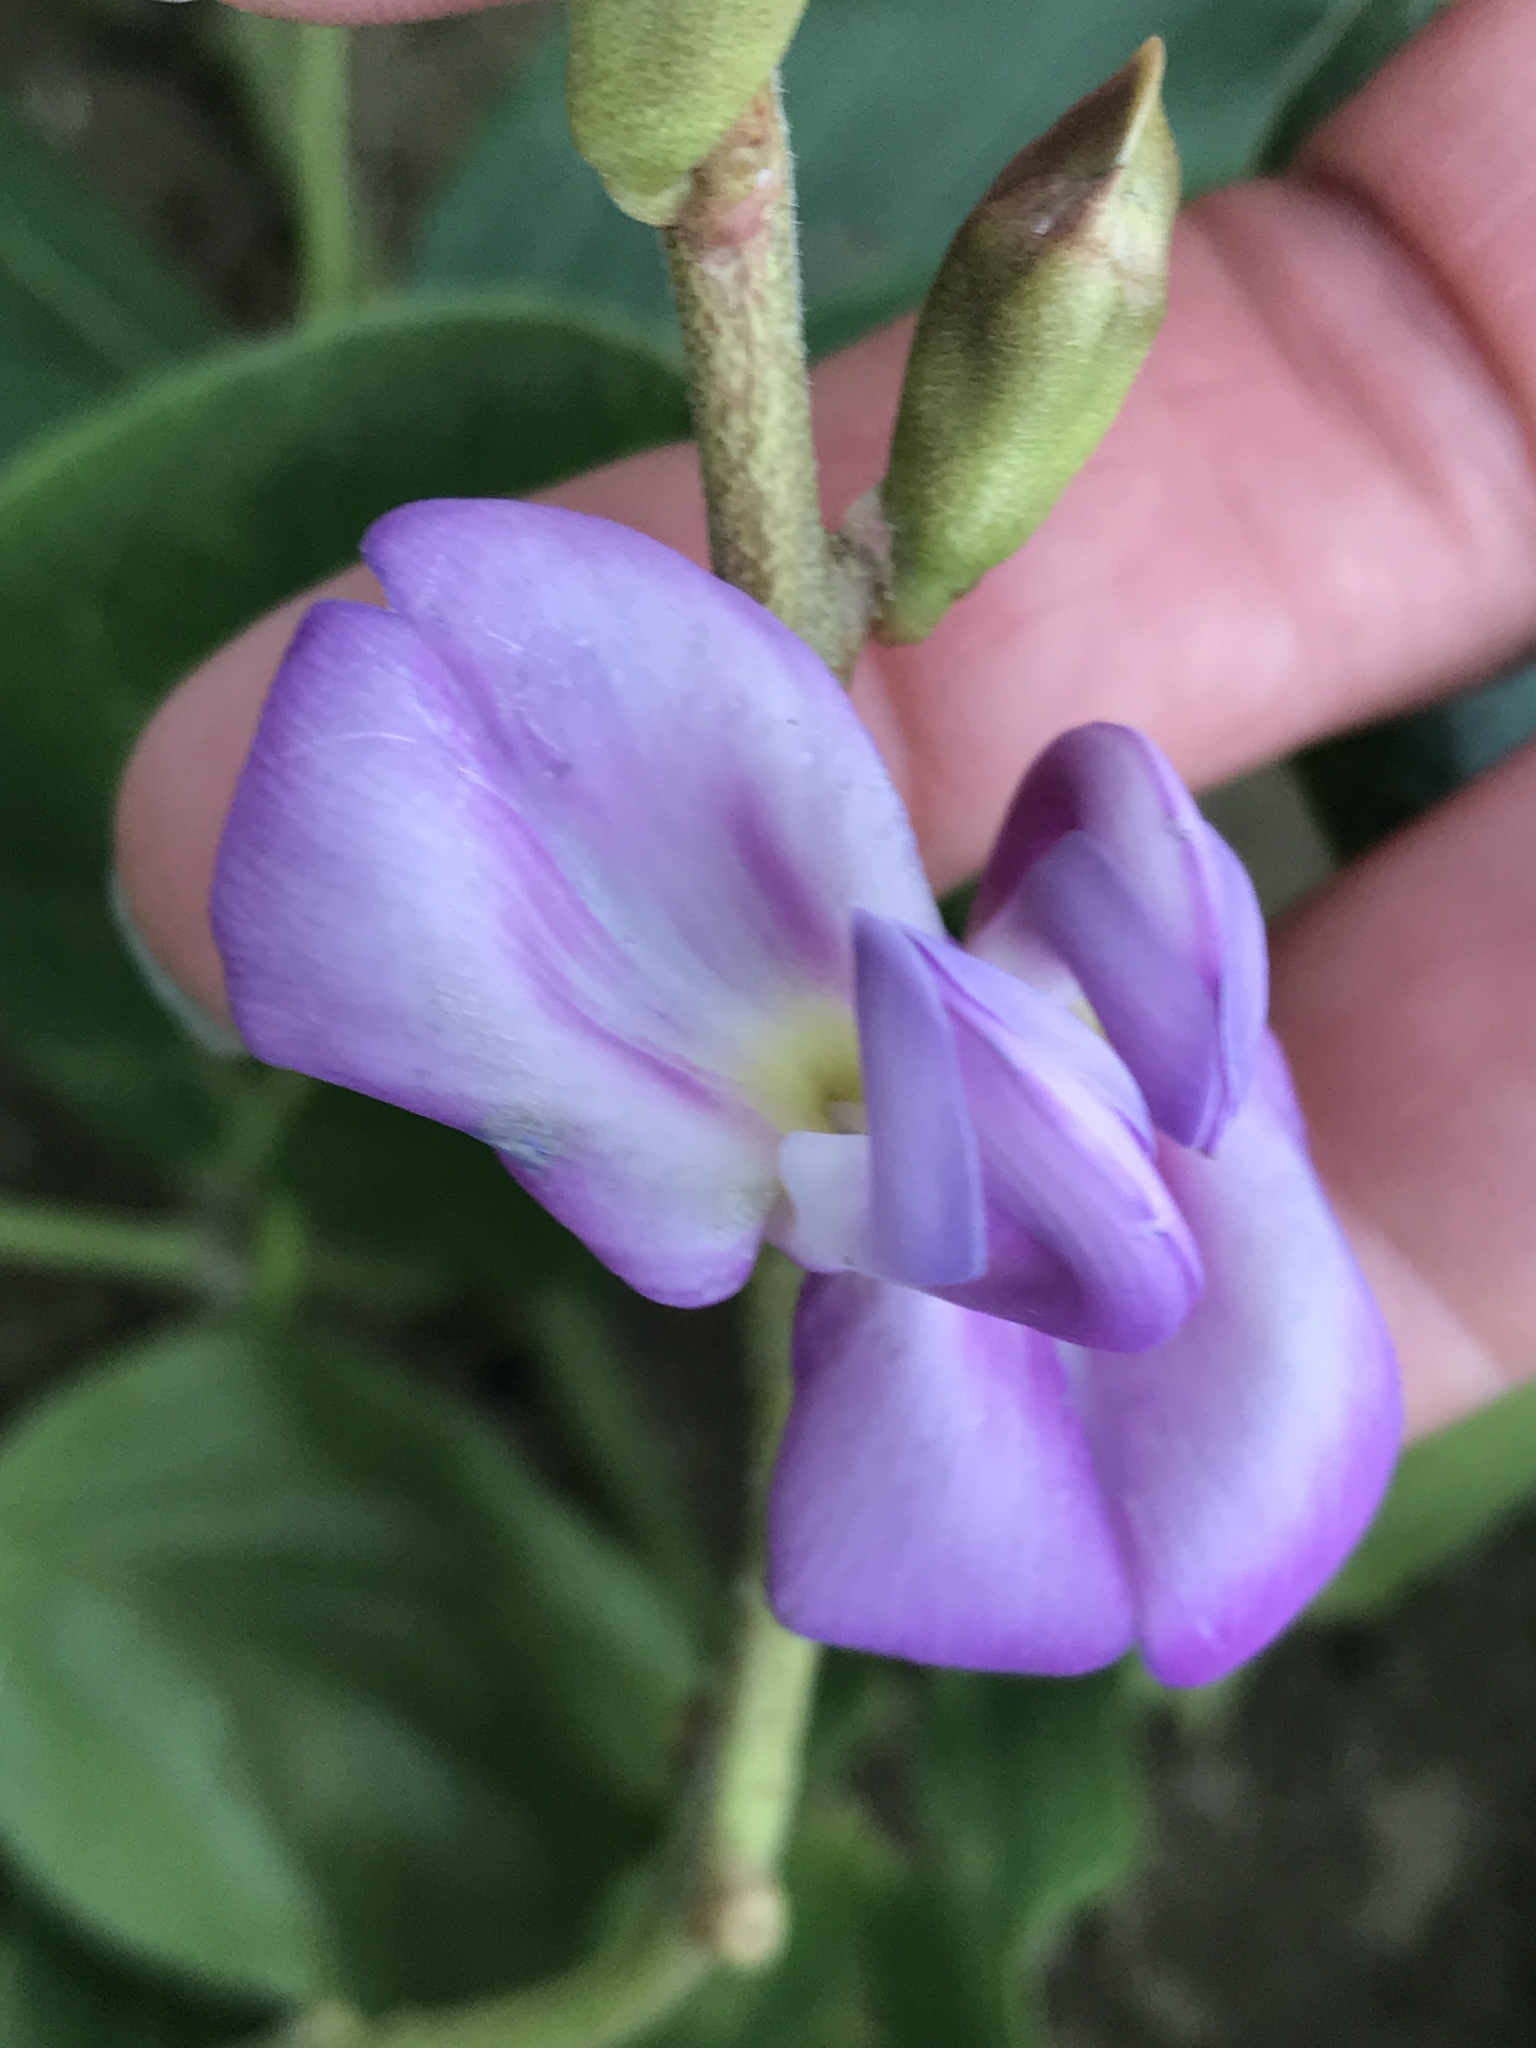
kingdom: Plantae
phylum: Tracheophyta
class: Magnoliopsida
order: Fabales
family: Fabaceae
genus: Canavalia
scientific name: Canavalia rosea
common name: Beach-bean
